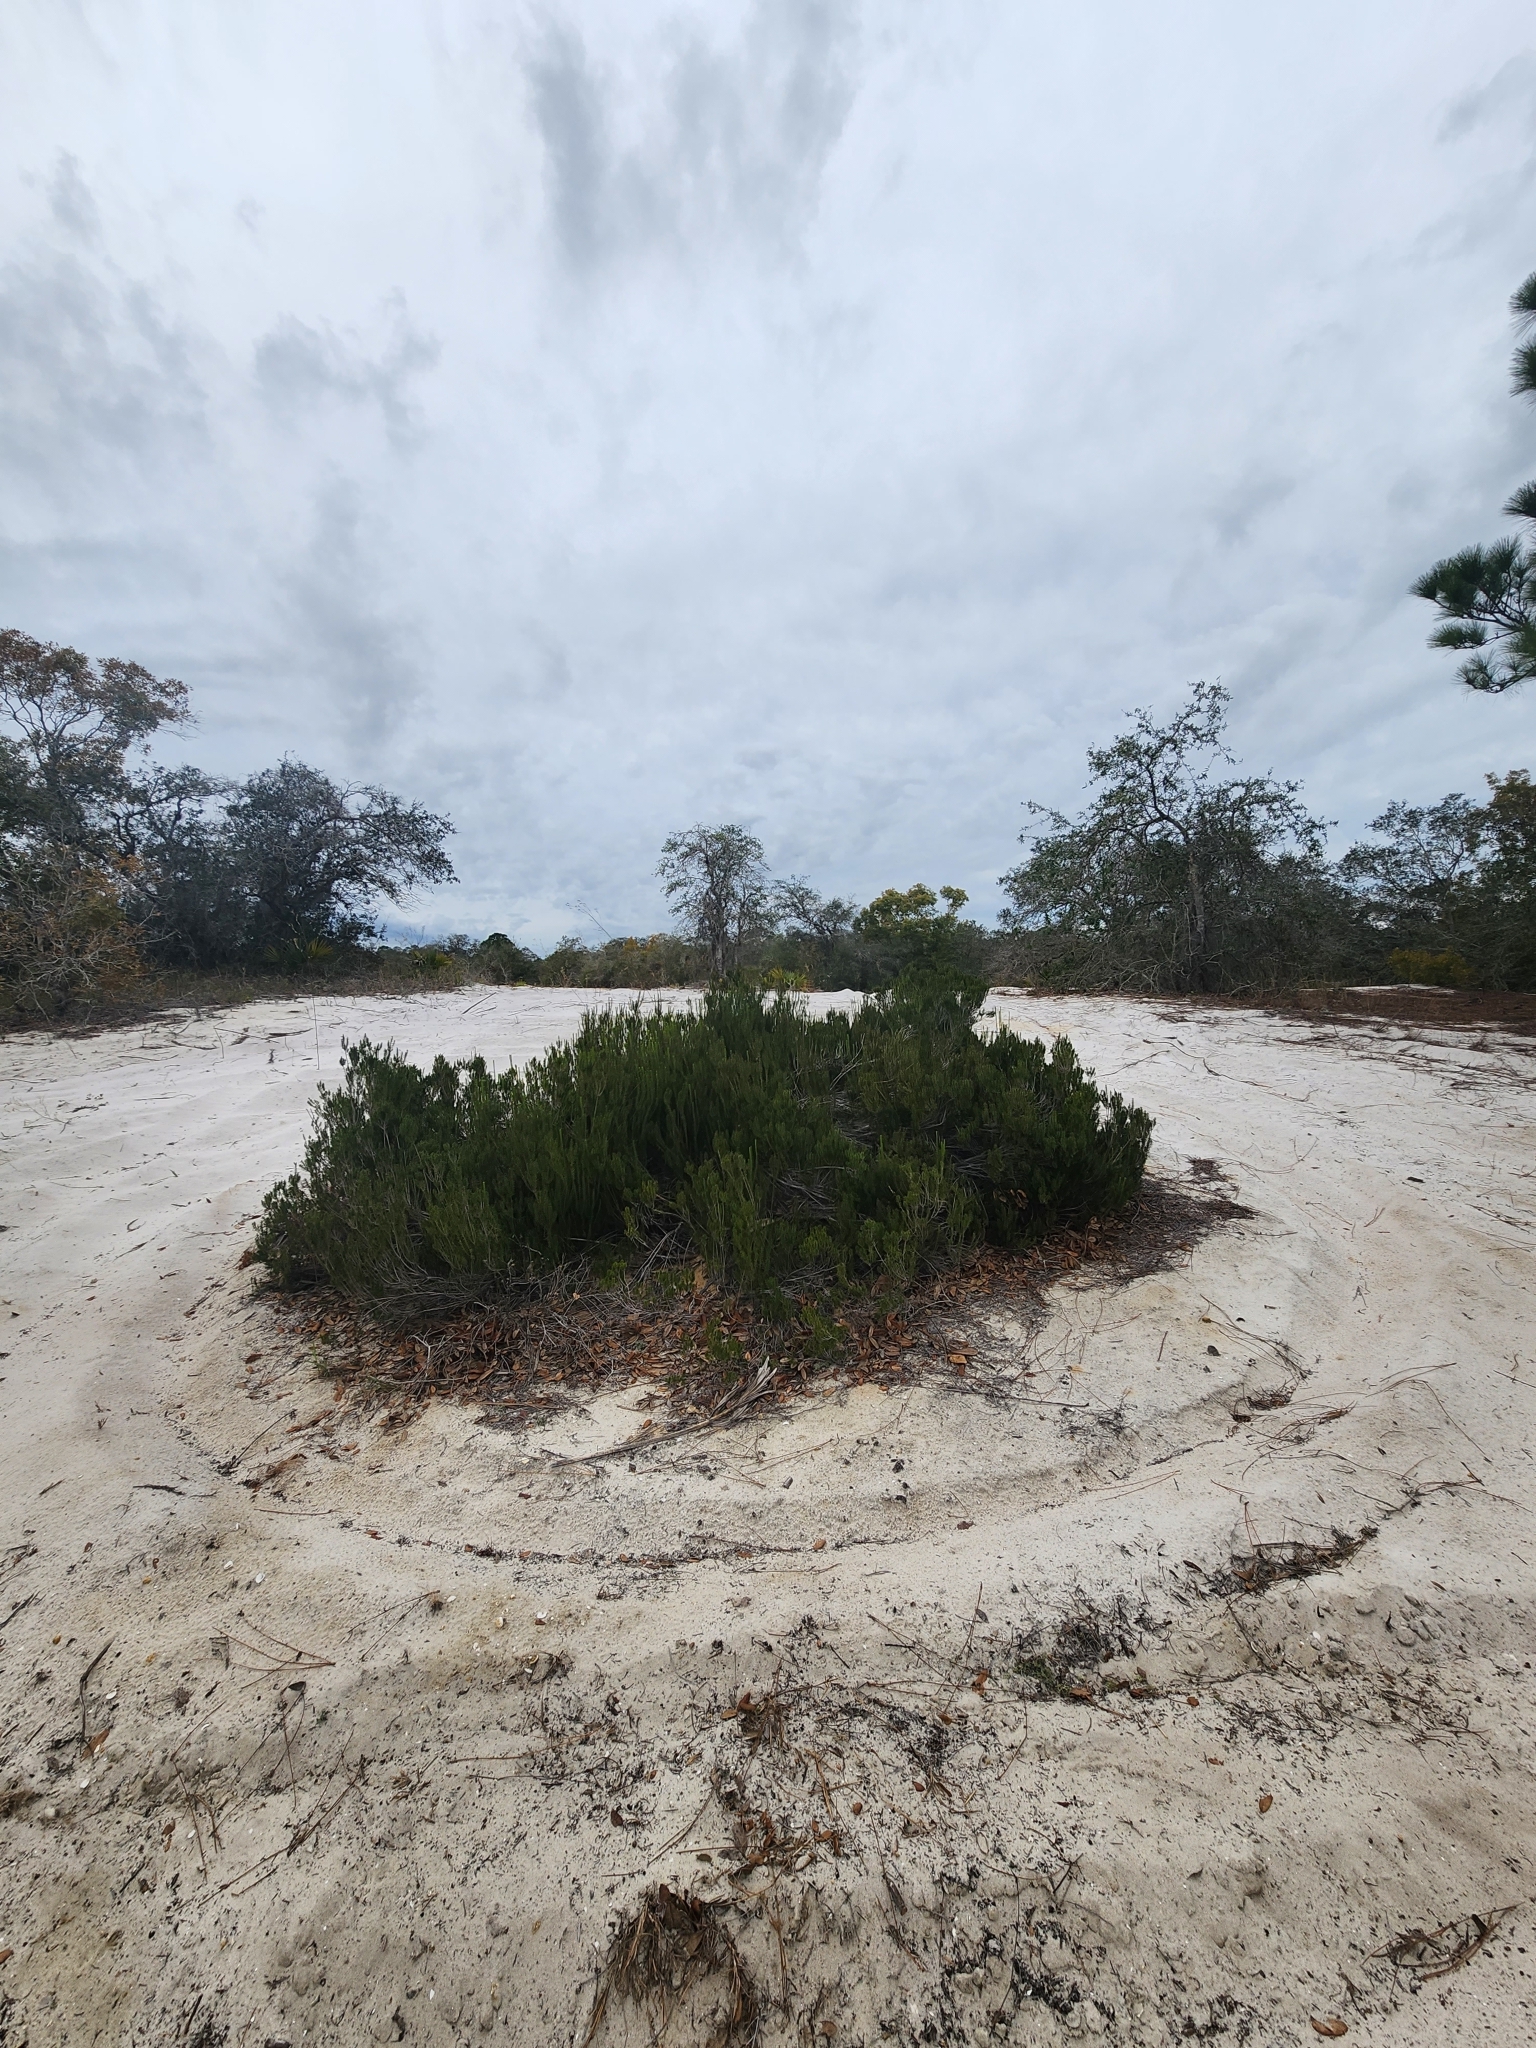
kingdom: Plantae
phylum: Tracheophyta
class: Magnoliopsida
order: Ericales
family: Ericaceae
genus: Ceratiola
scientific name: Ceratiola ericoides
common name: Sandhill-rosemary
